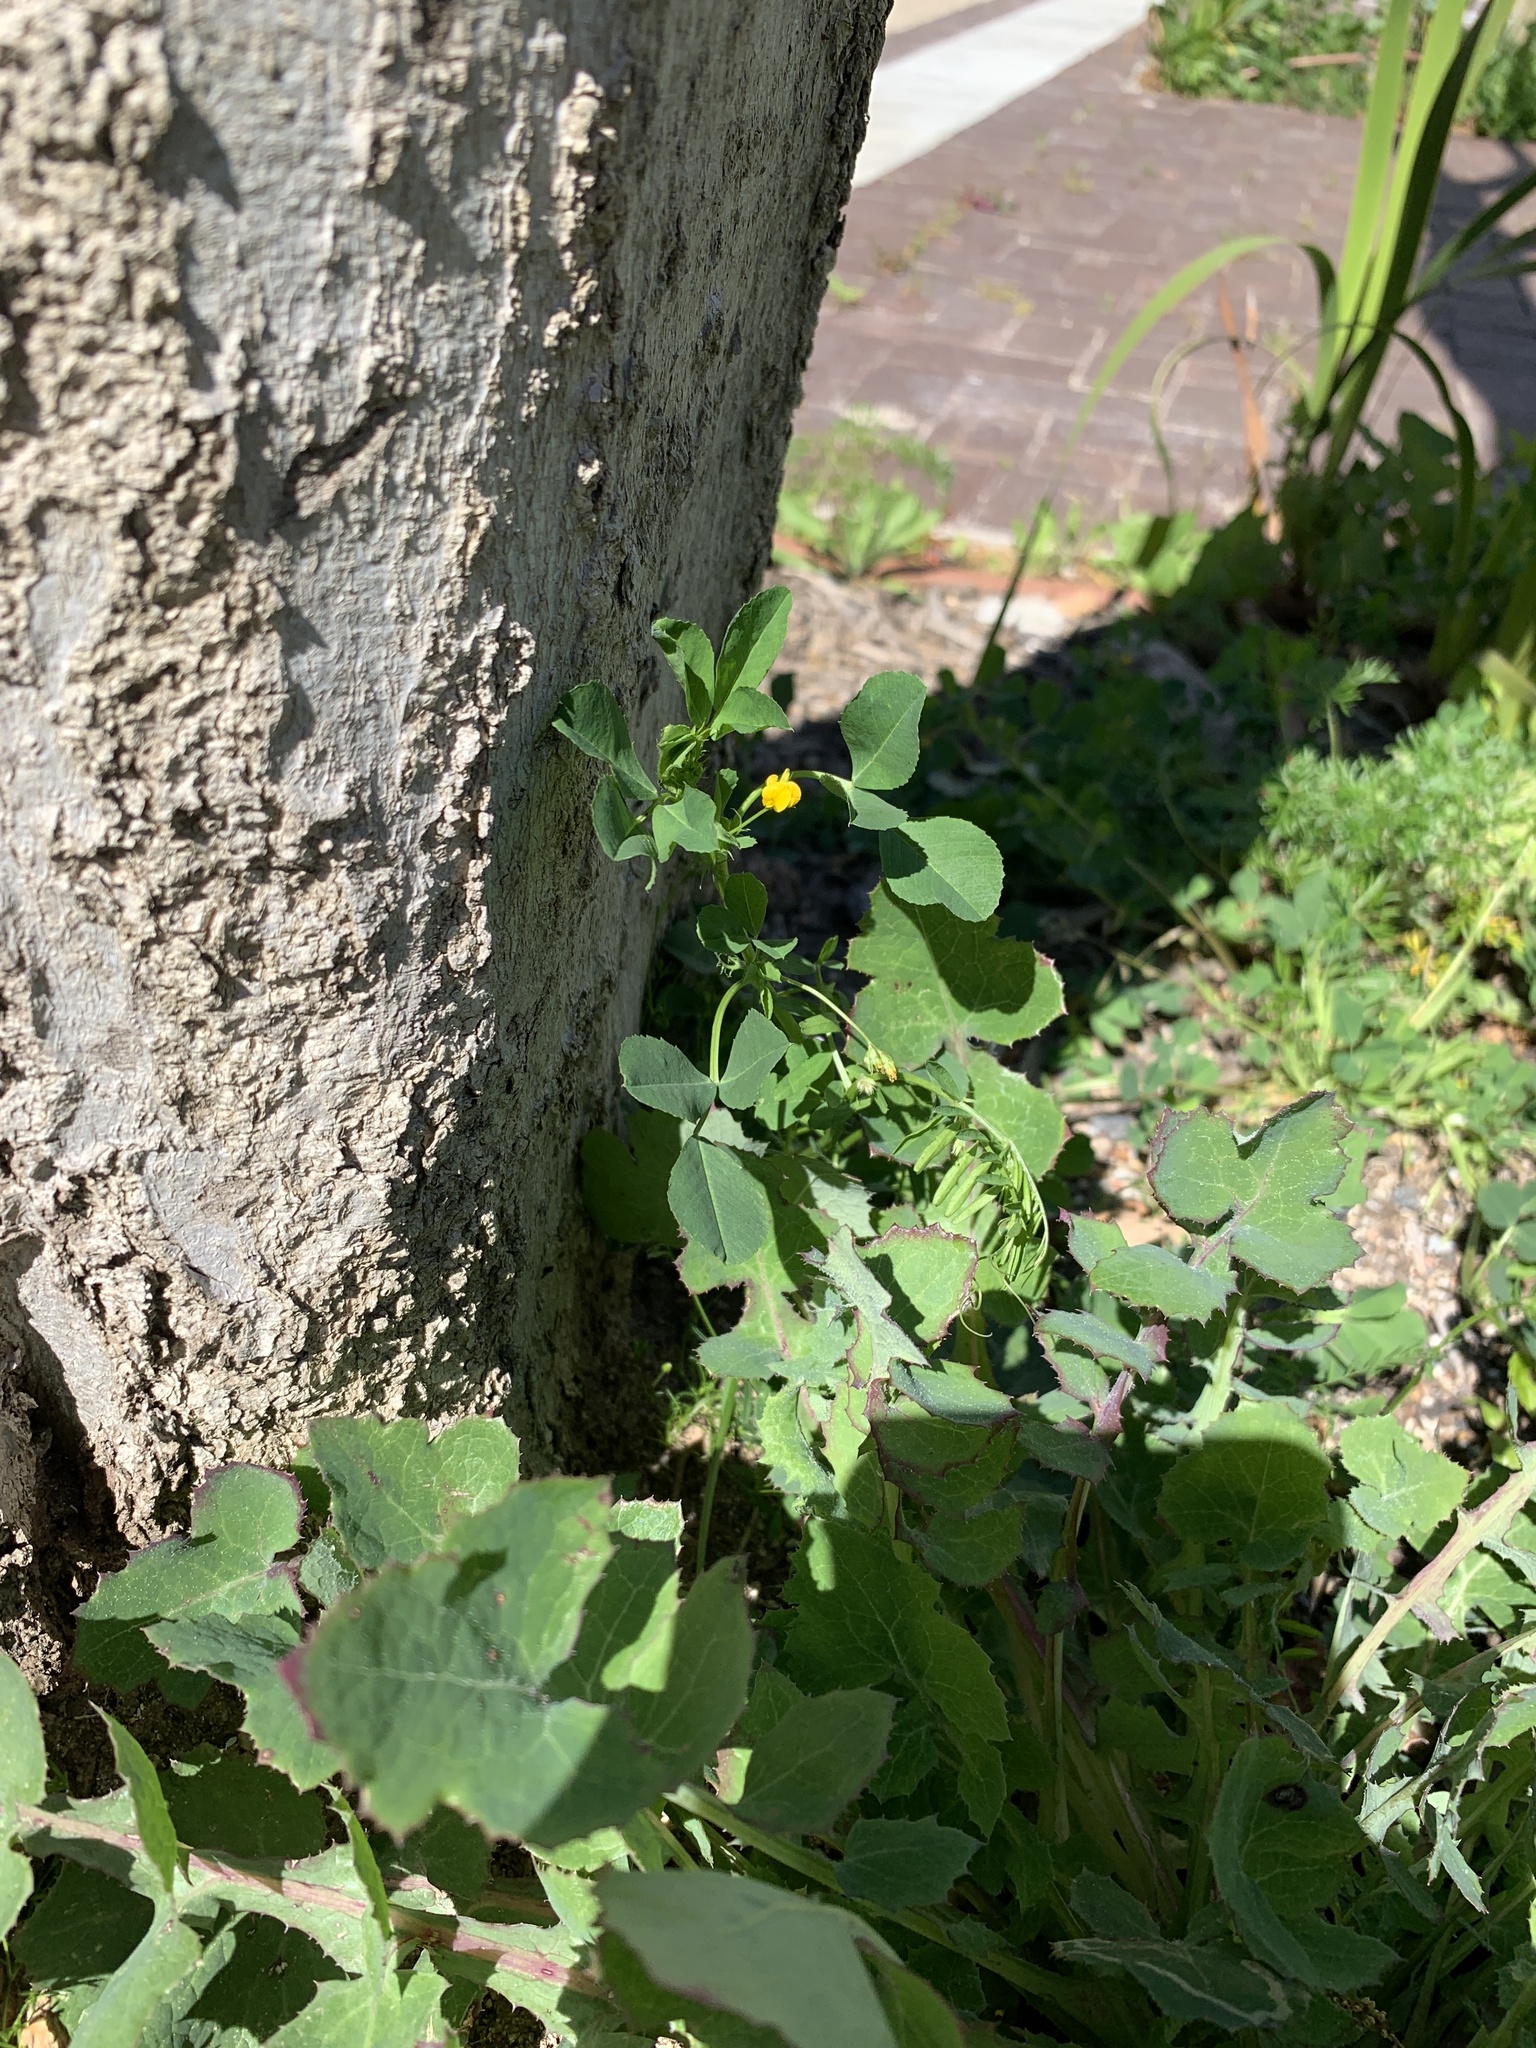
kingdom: Plantae
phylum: Tracheophyta
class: Magnoliopsida
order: Fabales
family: Fabaceae
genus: Medicago
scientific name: Medicago polymorpha
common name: Burclover
